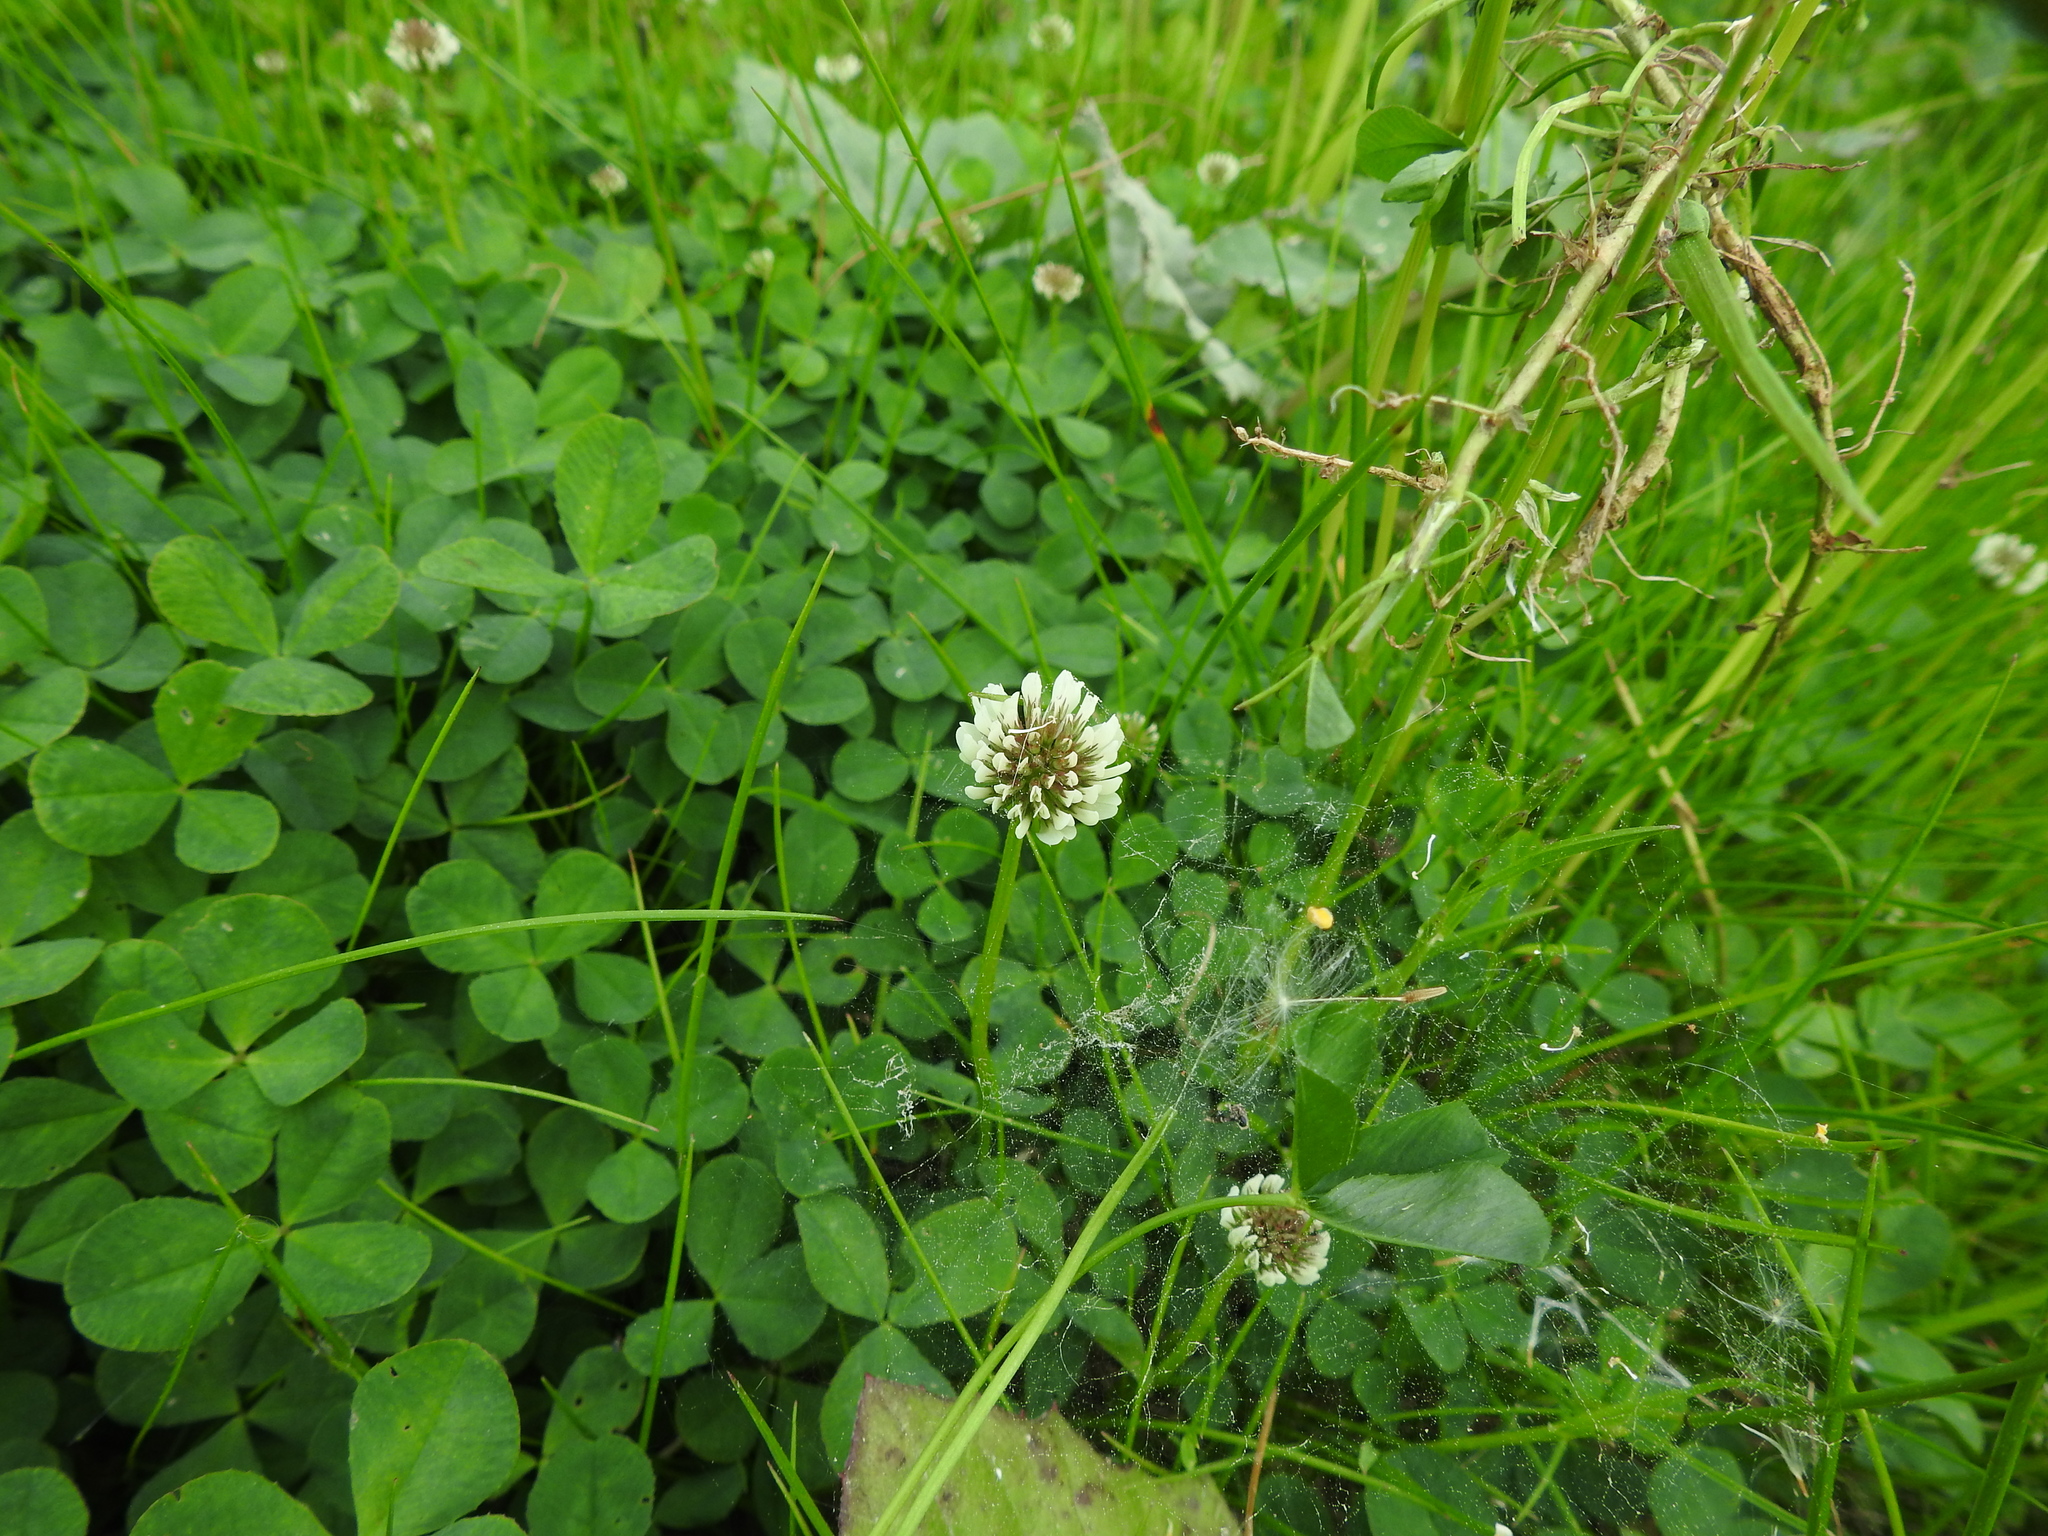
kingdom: Plantae
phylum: Tracheophyta
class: Magnoliopsida
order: Fabales
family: Fabaceae
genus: Trifolium
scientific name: Trifolium repens
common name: White clover
